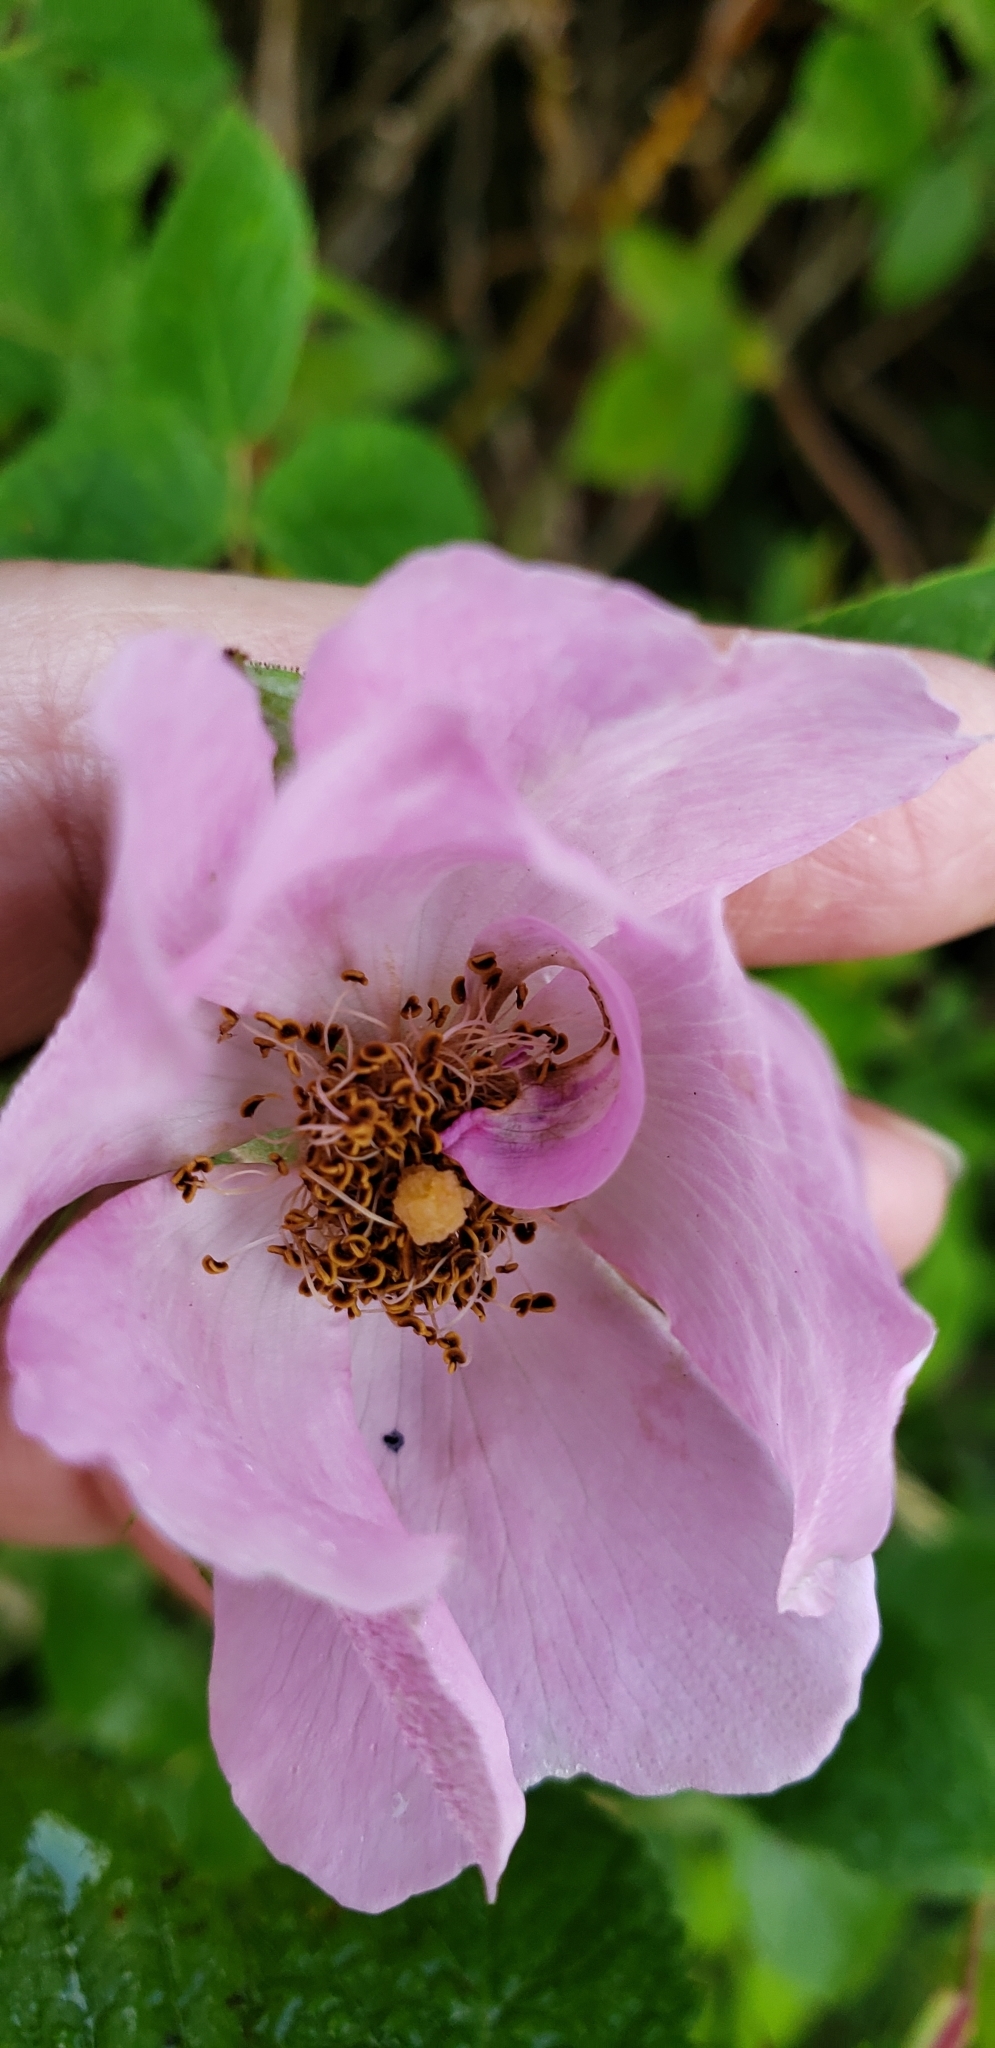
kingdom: Plantae
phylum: Tracheophyta
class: Magnoliopsida
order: Rosales
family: Rosaceae
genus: Rosa
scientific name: Rosa setigera
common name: Prairie rose
